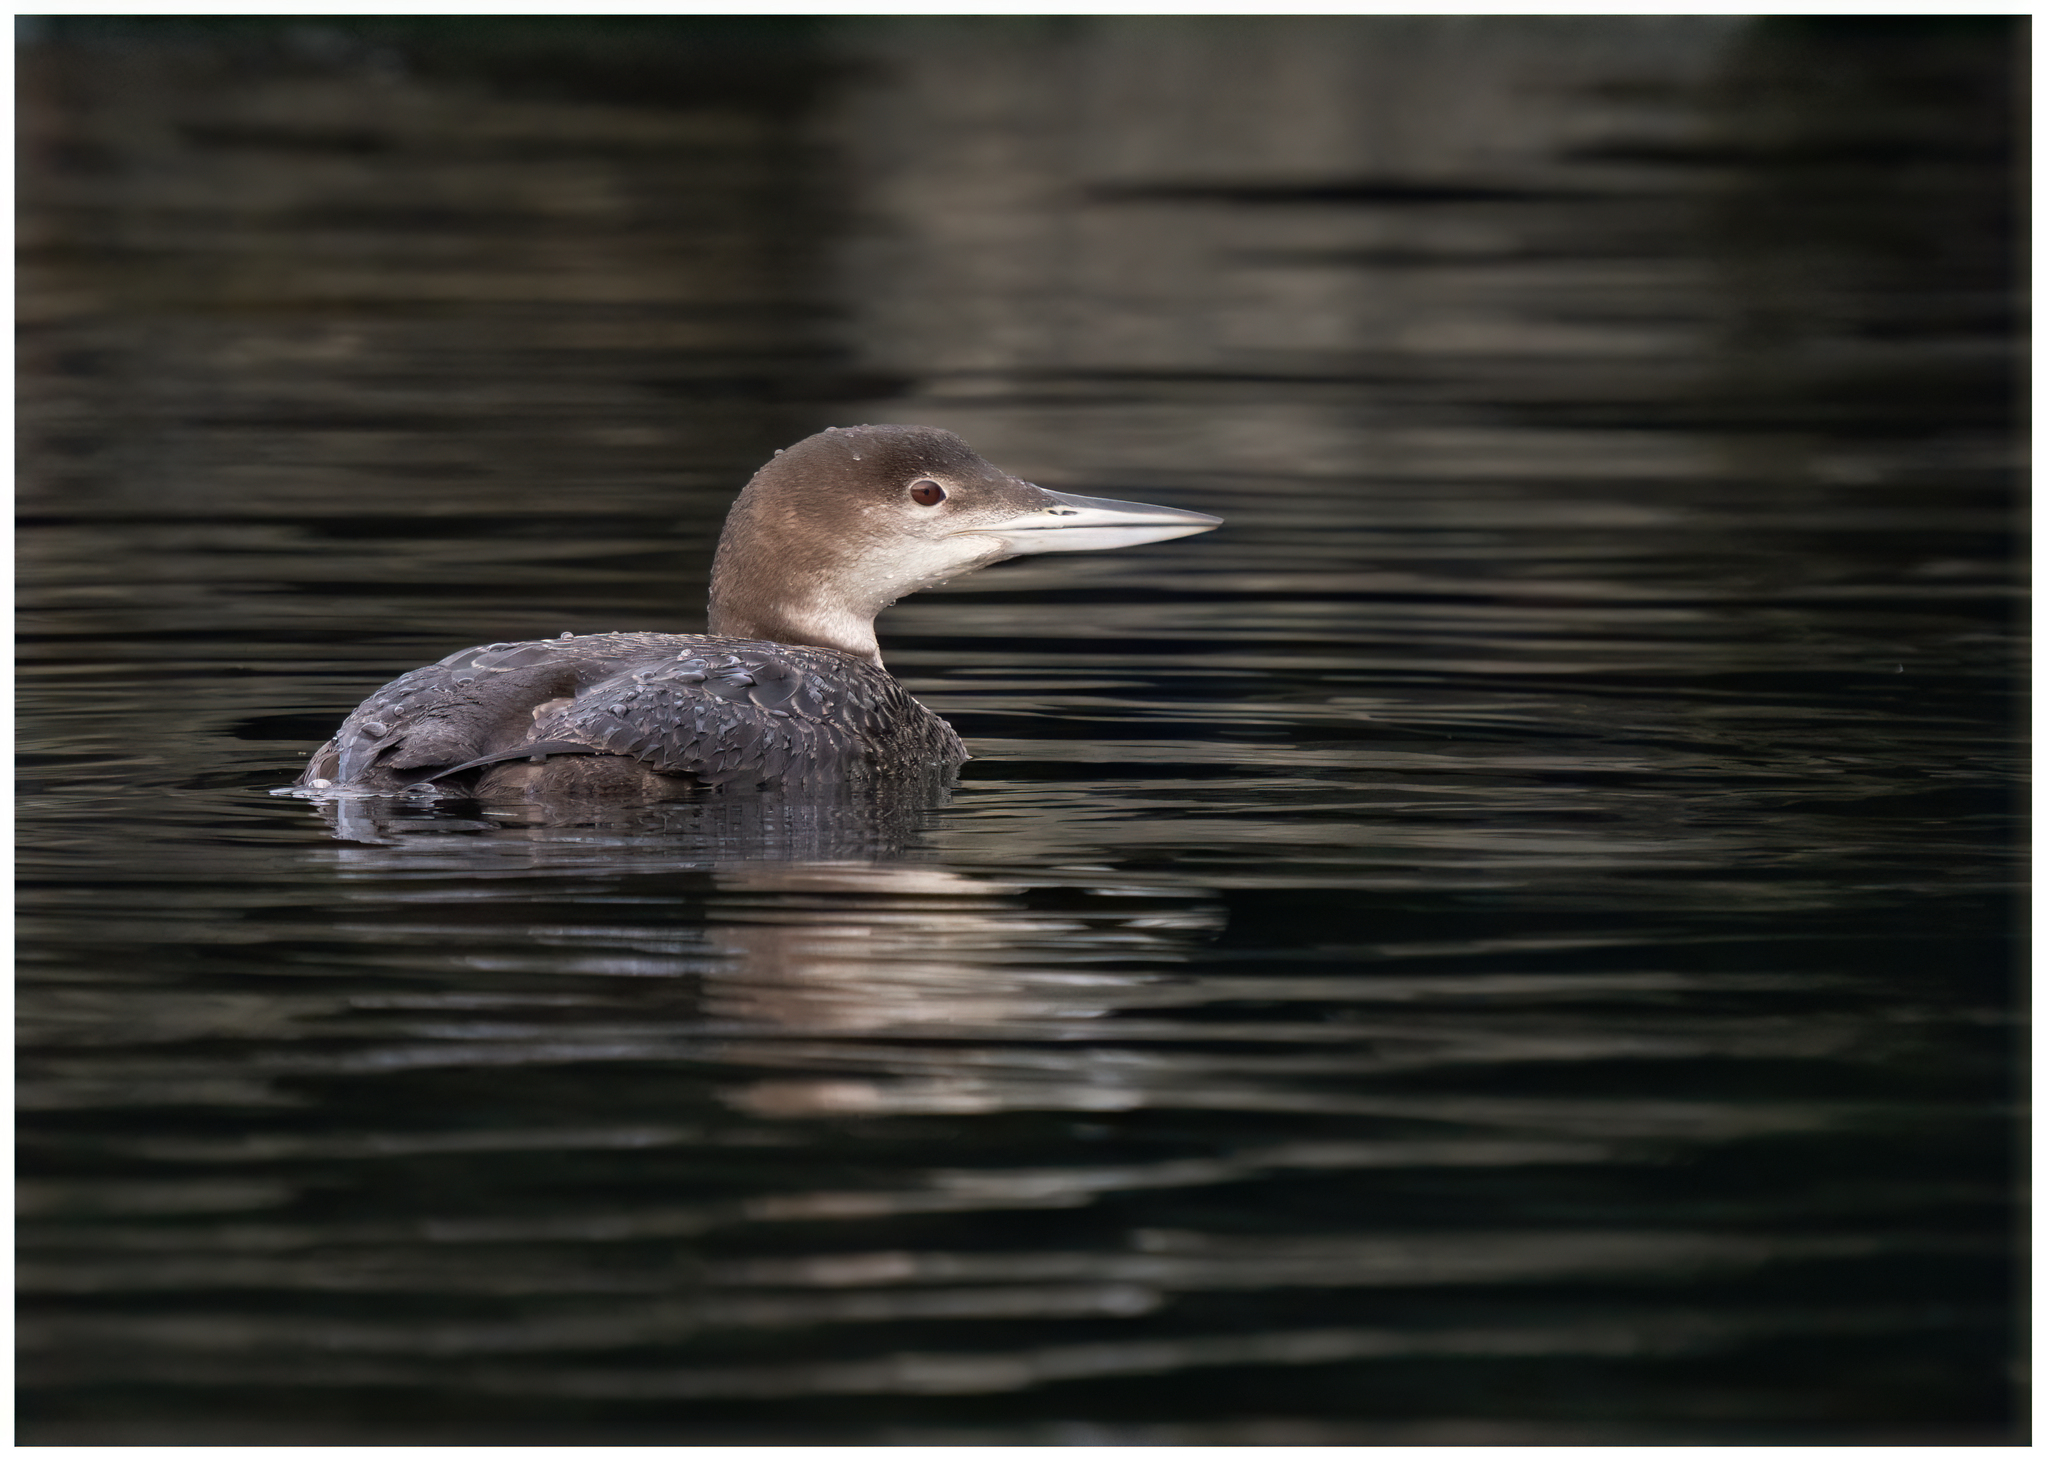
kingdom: Animalia
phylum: Chordata
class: Aves
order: Gaviiformes
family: Gaviidae
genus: Gavia
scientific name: Gavia immer
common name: Common loon
